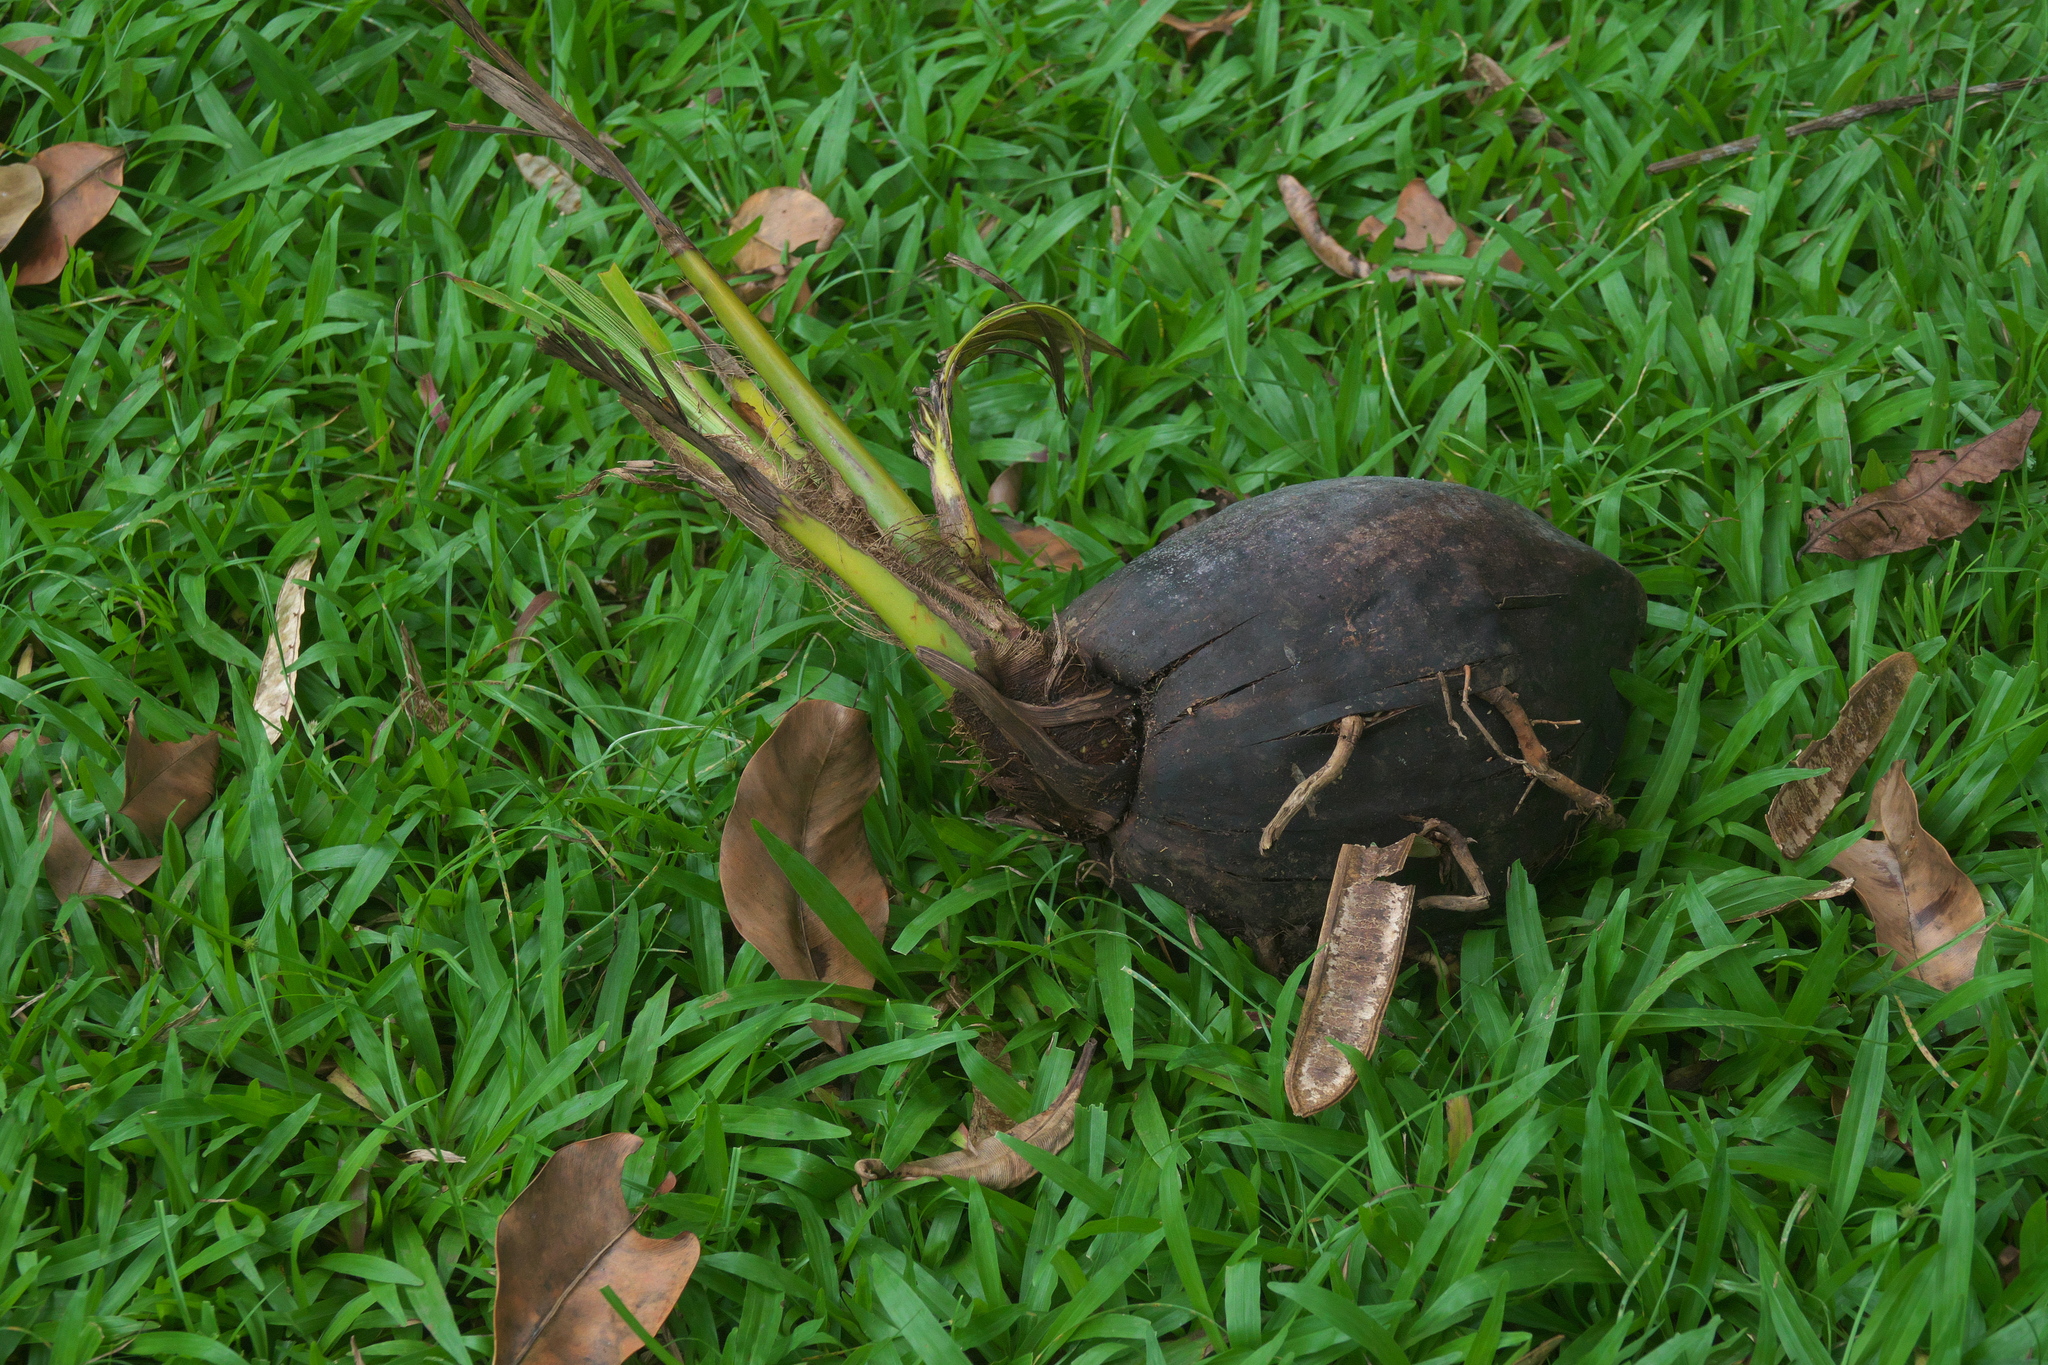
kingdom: Plantae
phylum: Tracheophyta
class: Liliopsida
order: Arecales
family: Arecaceae
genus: Cocos
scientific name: Cocos nucifera
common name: Coconut palm
